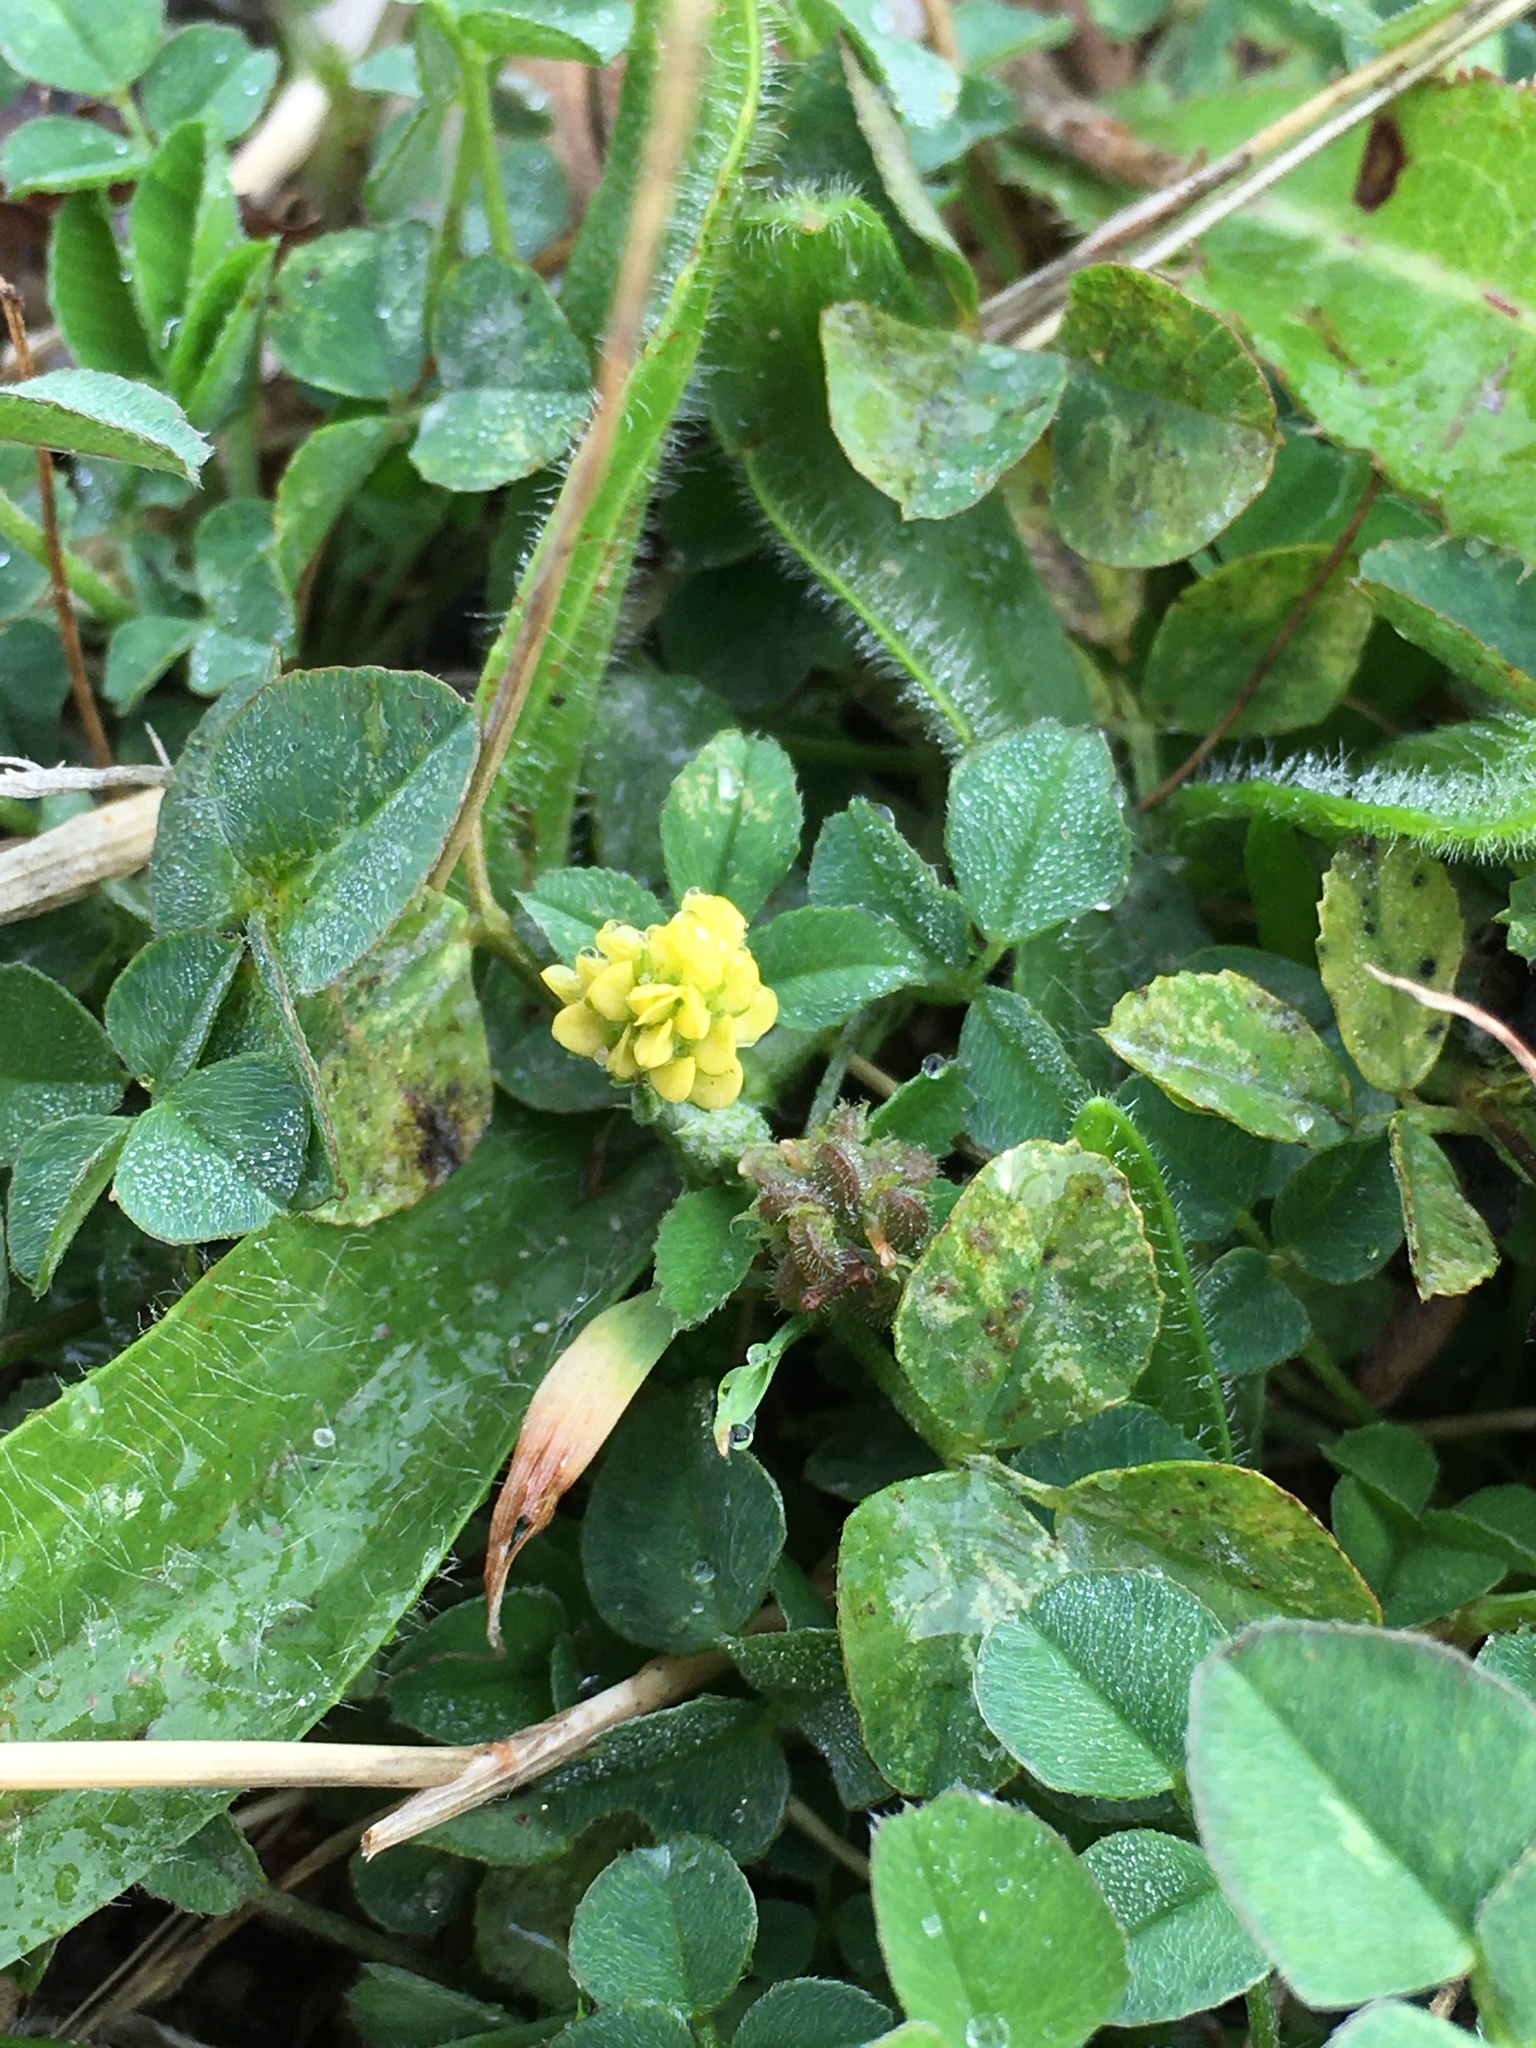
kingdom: Plantae
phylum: Tracheophyta
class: Magnoliopsida
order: Fabales
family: Fabaceae
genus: Medicago
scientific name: Medicago lupulina
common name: Black medick
